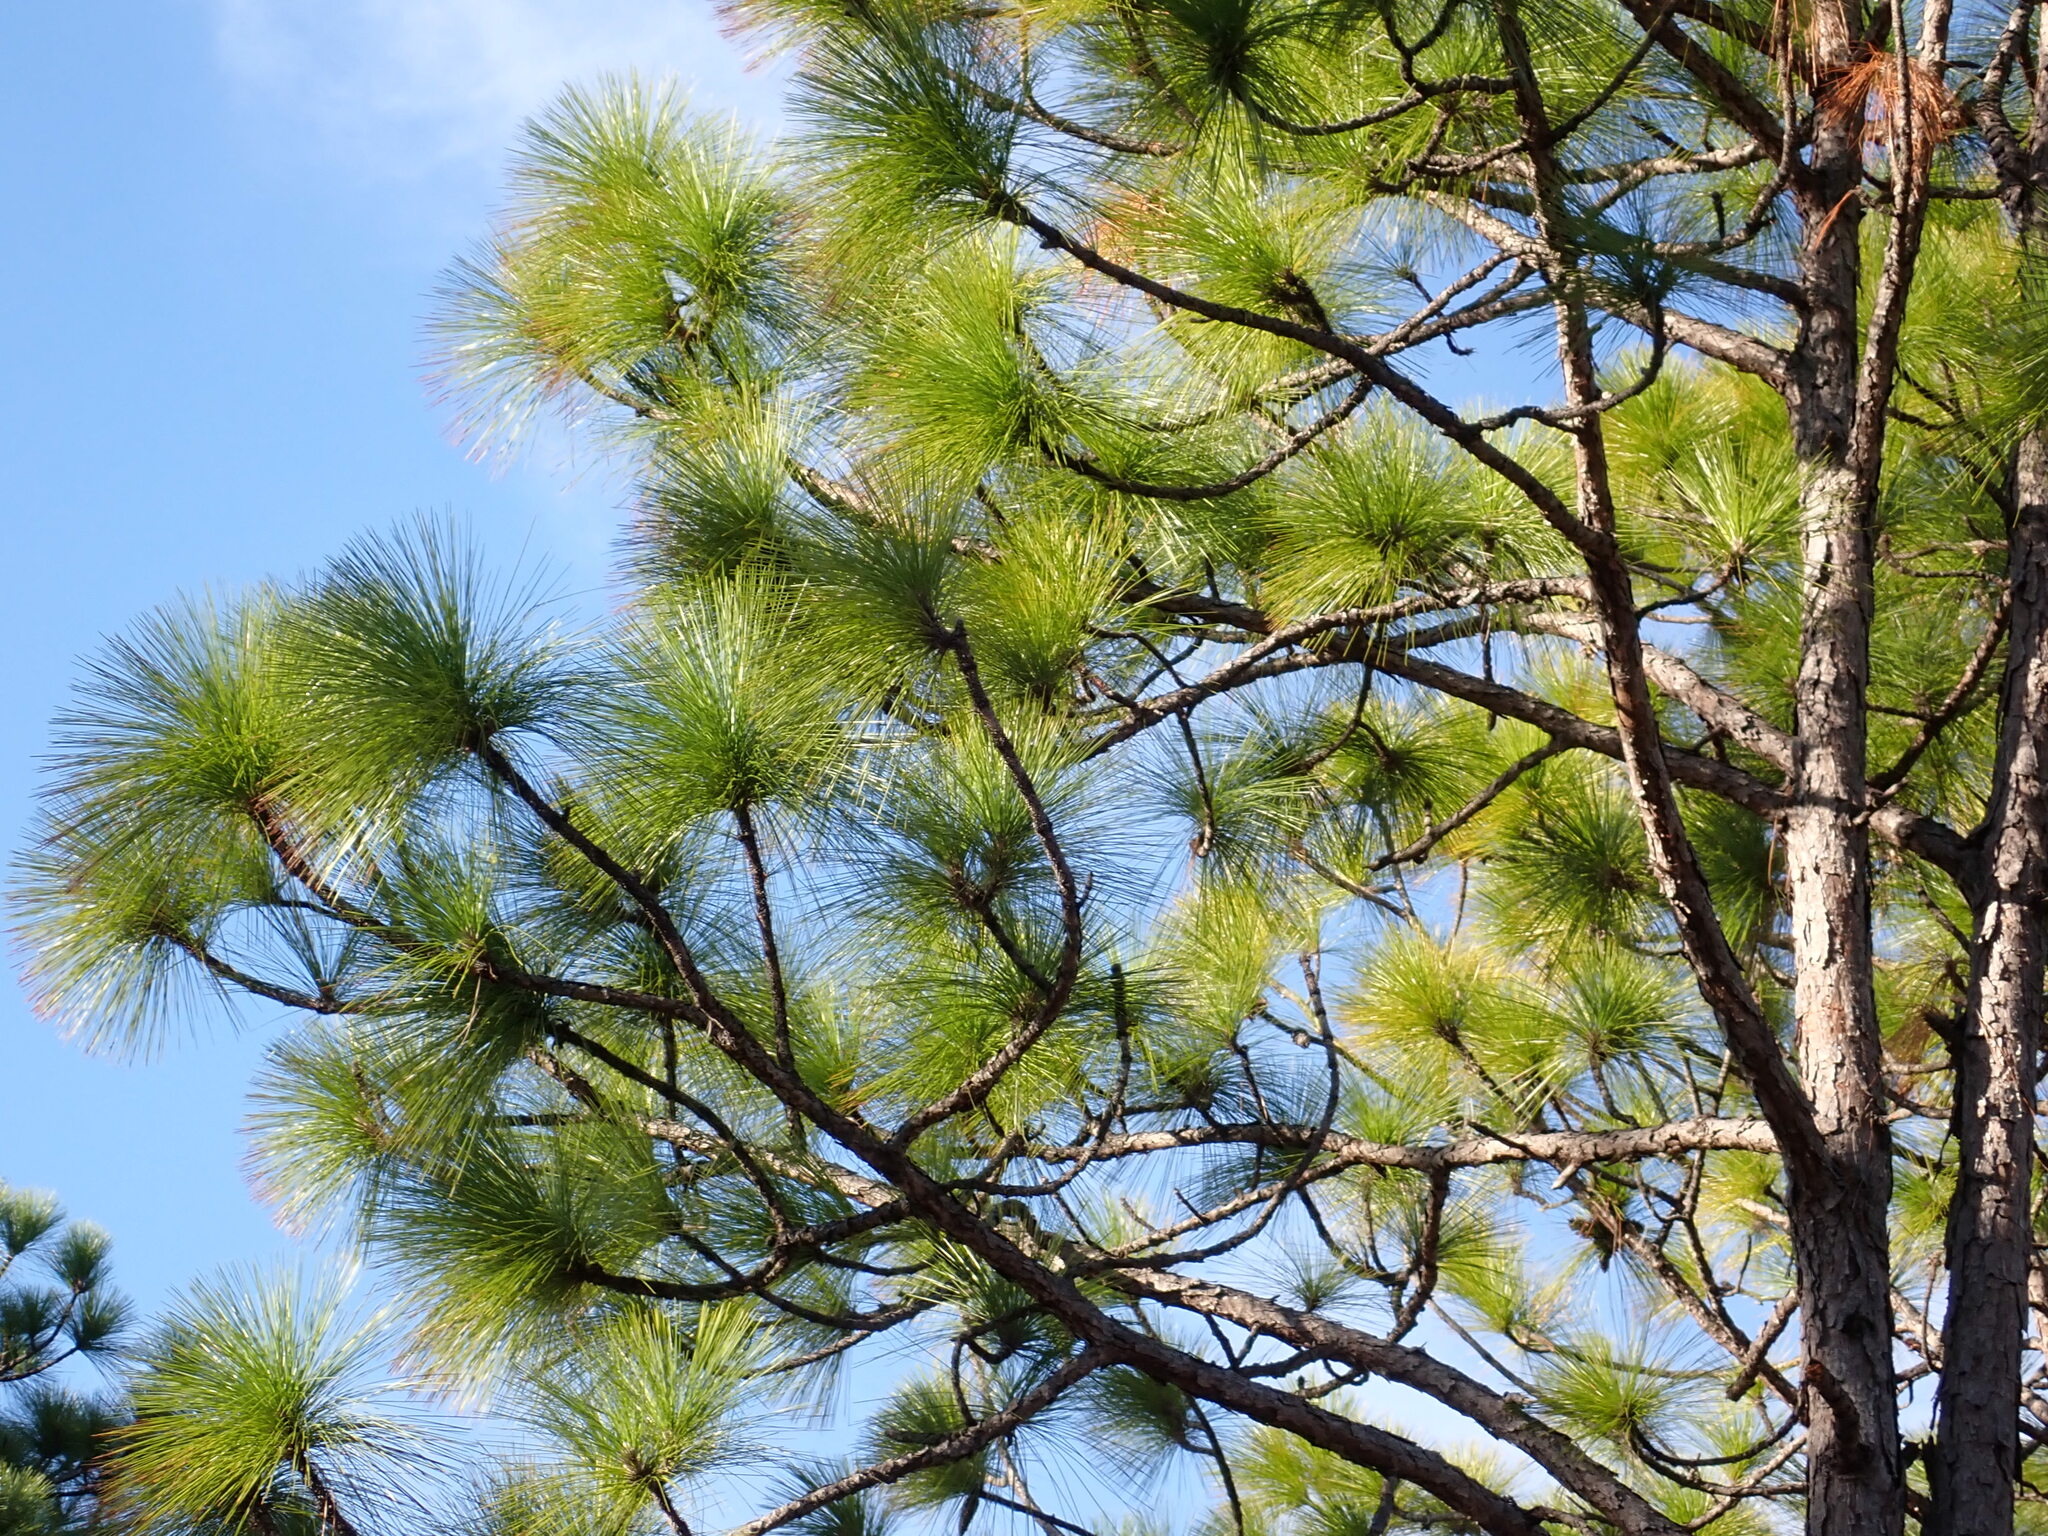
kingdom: Plantae
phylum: Tracheophyta
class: Pinopsida
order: Pinales
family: Pinaceae
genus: Pinus
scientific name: Pinus palustris
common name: Longleaf pine
